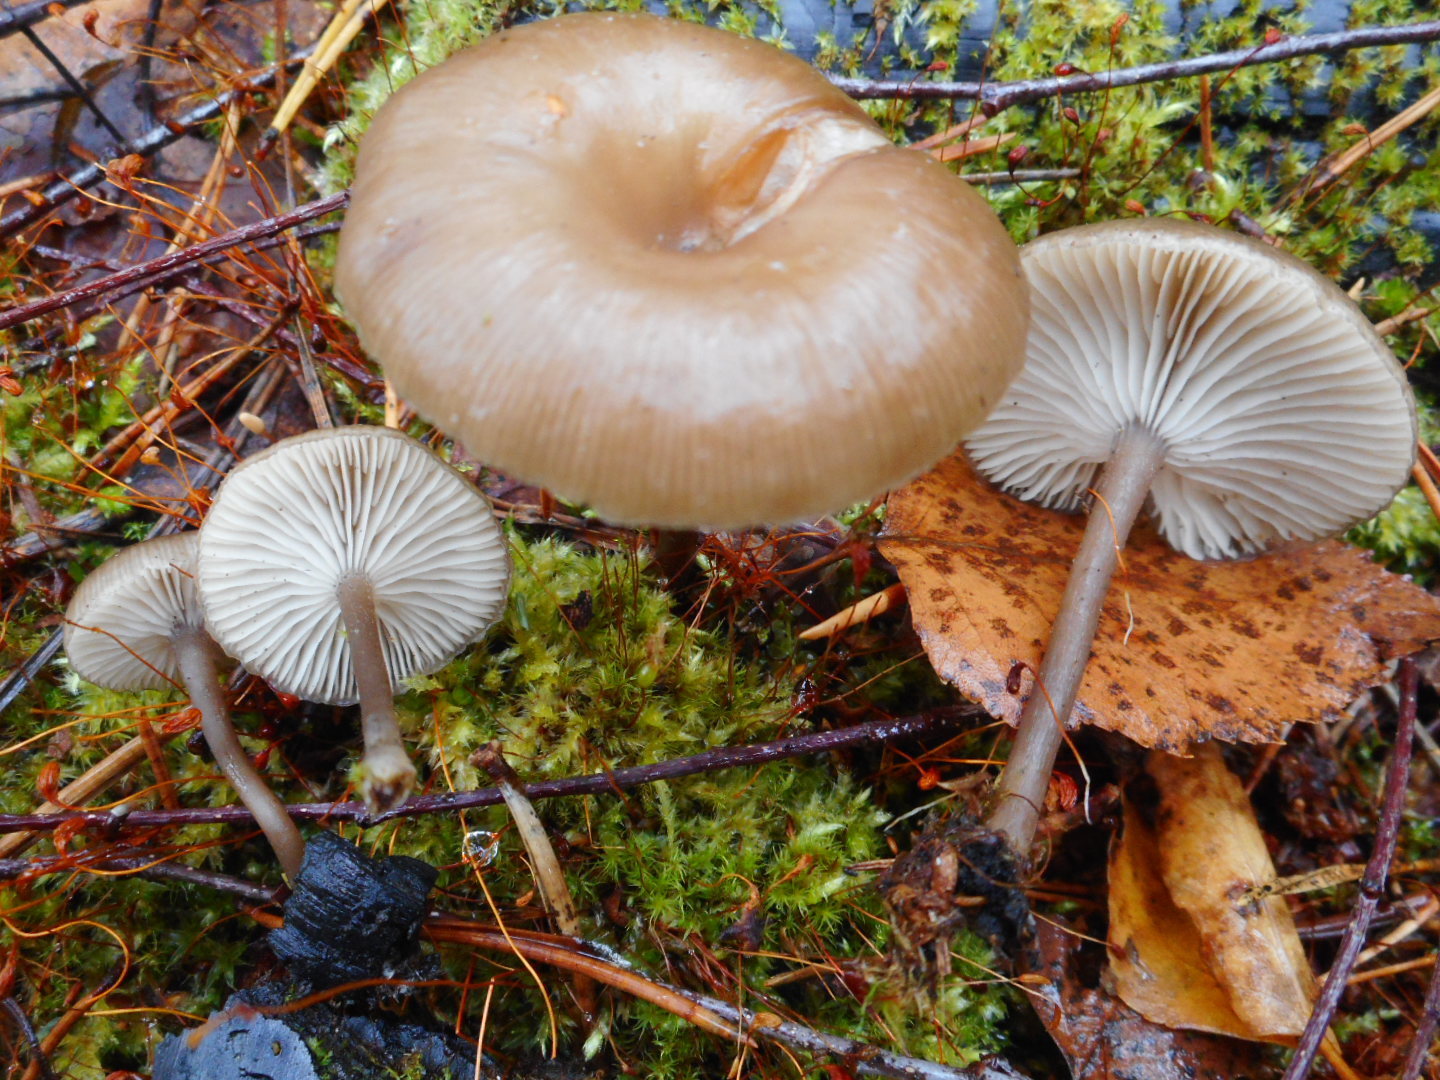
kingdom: Fungi
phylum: Basidiomycota
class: Agaricomycetes
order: Agaricales
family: Tricholomataceae
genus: Myxomphalia
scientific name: Myxomphalia maura
